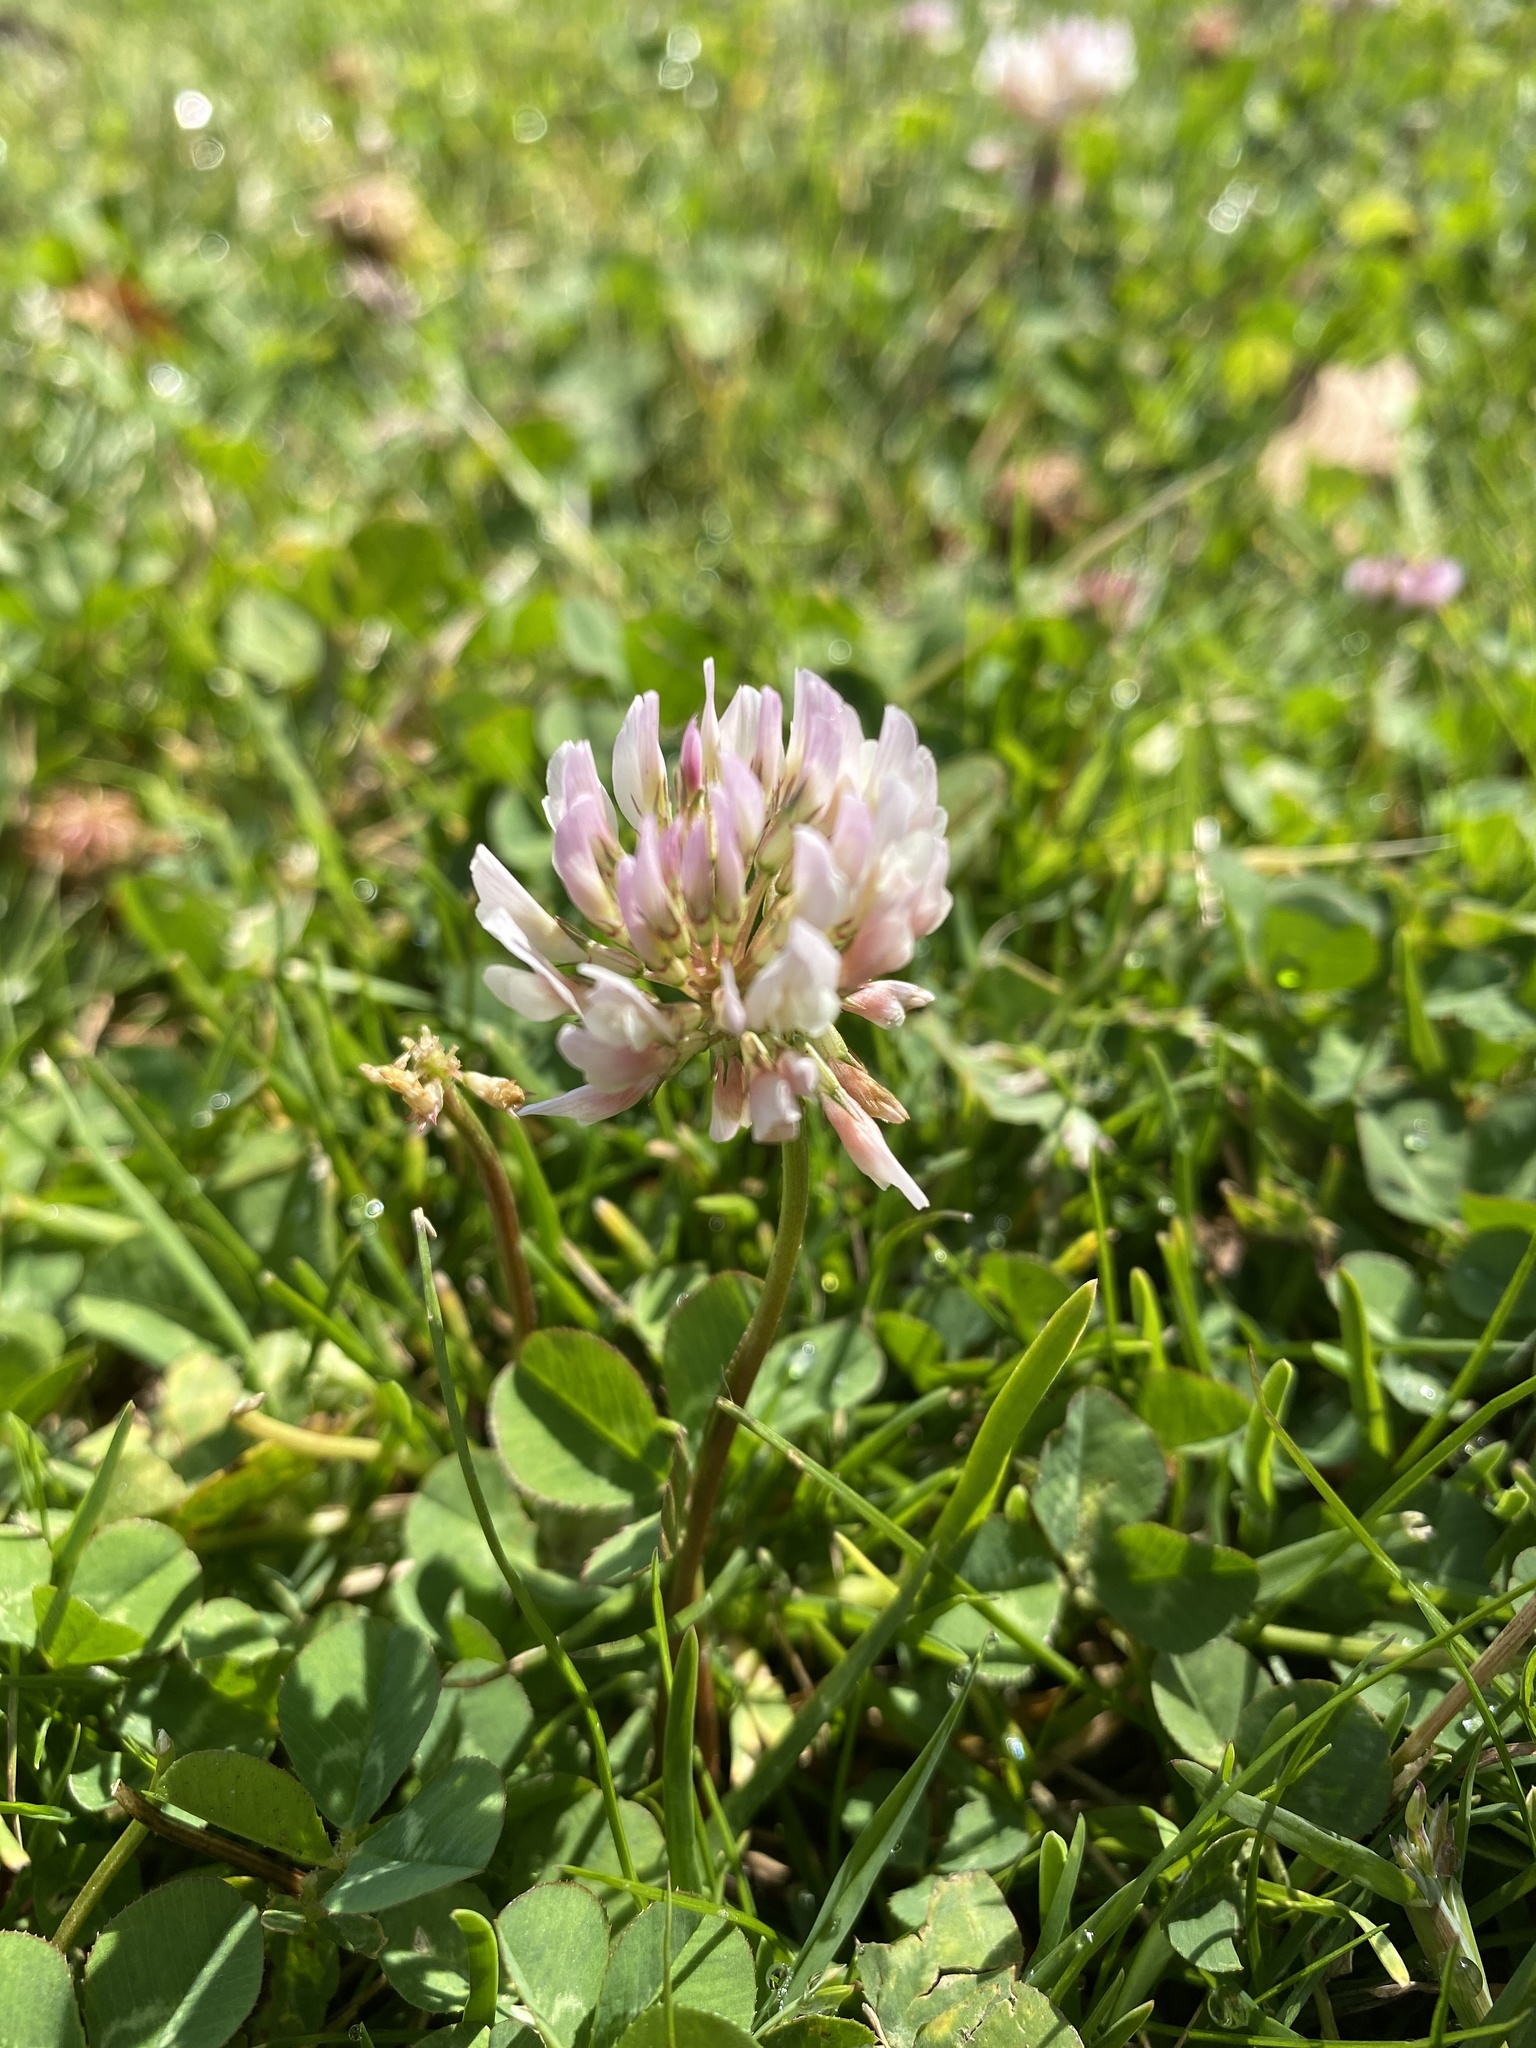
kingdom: Plantae
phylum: Tracheophyta
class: Magnoliopsida
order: Fabales
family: Fabaceae
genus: Trifolium
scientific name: Trifolium repens
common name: White clover
